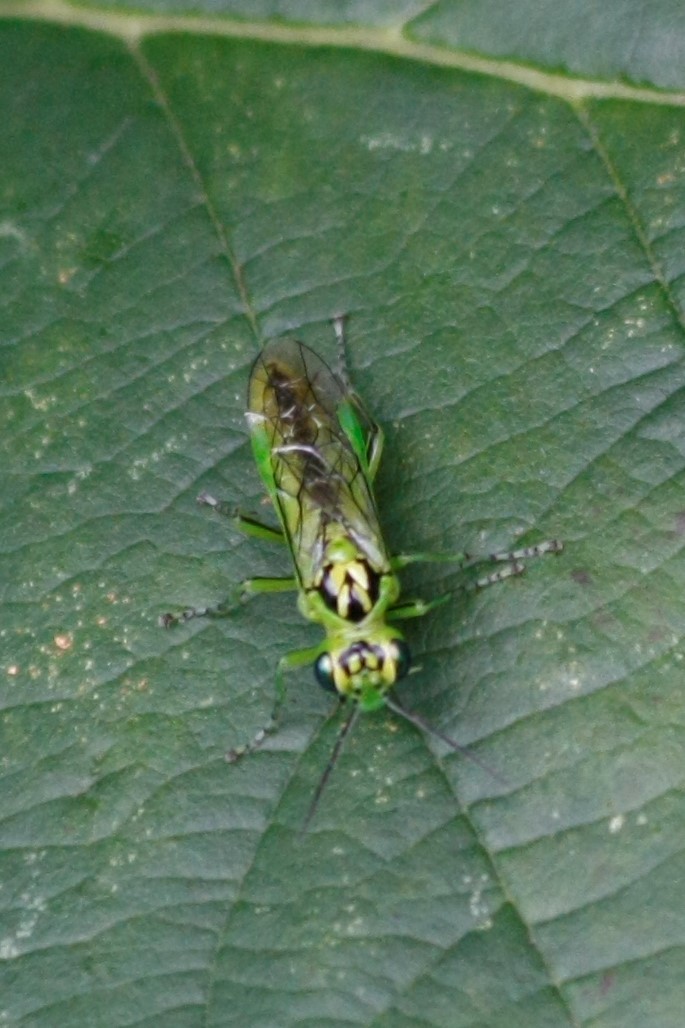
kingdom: Animalia
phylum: Arthropoda
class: Insecta
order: Hymenoptera
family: Tenthredinidae
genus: Rhogogaster
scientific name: Rhogogaster chlorosoma
